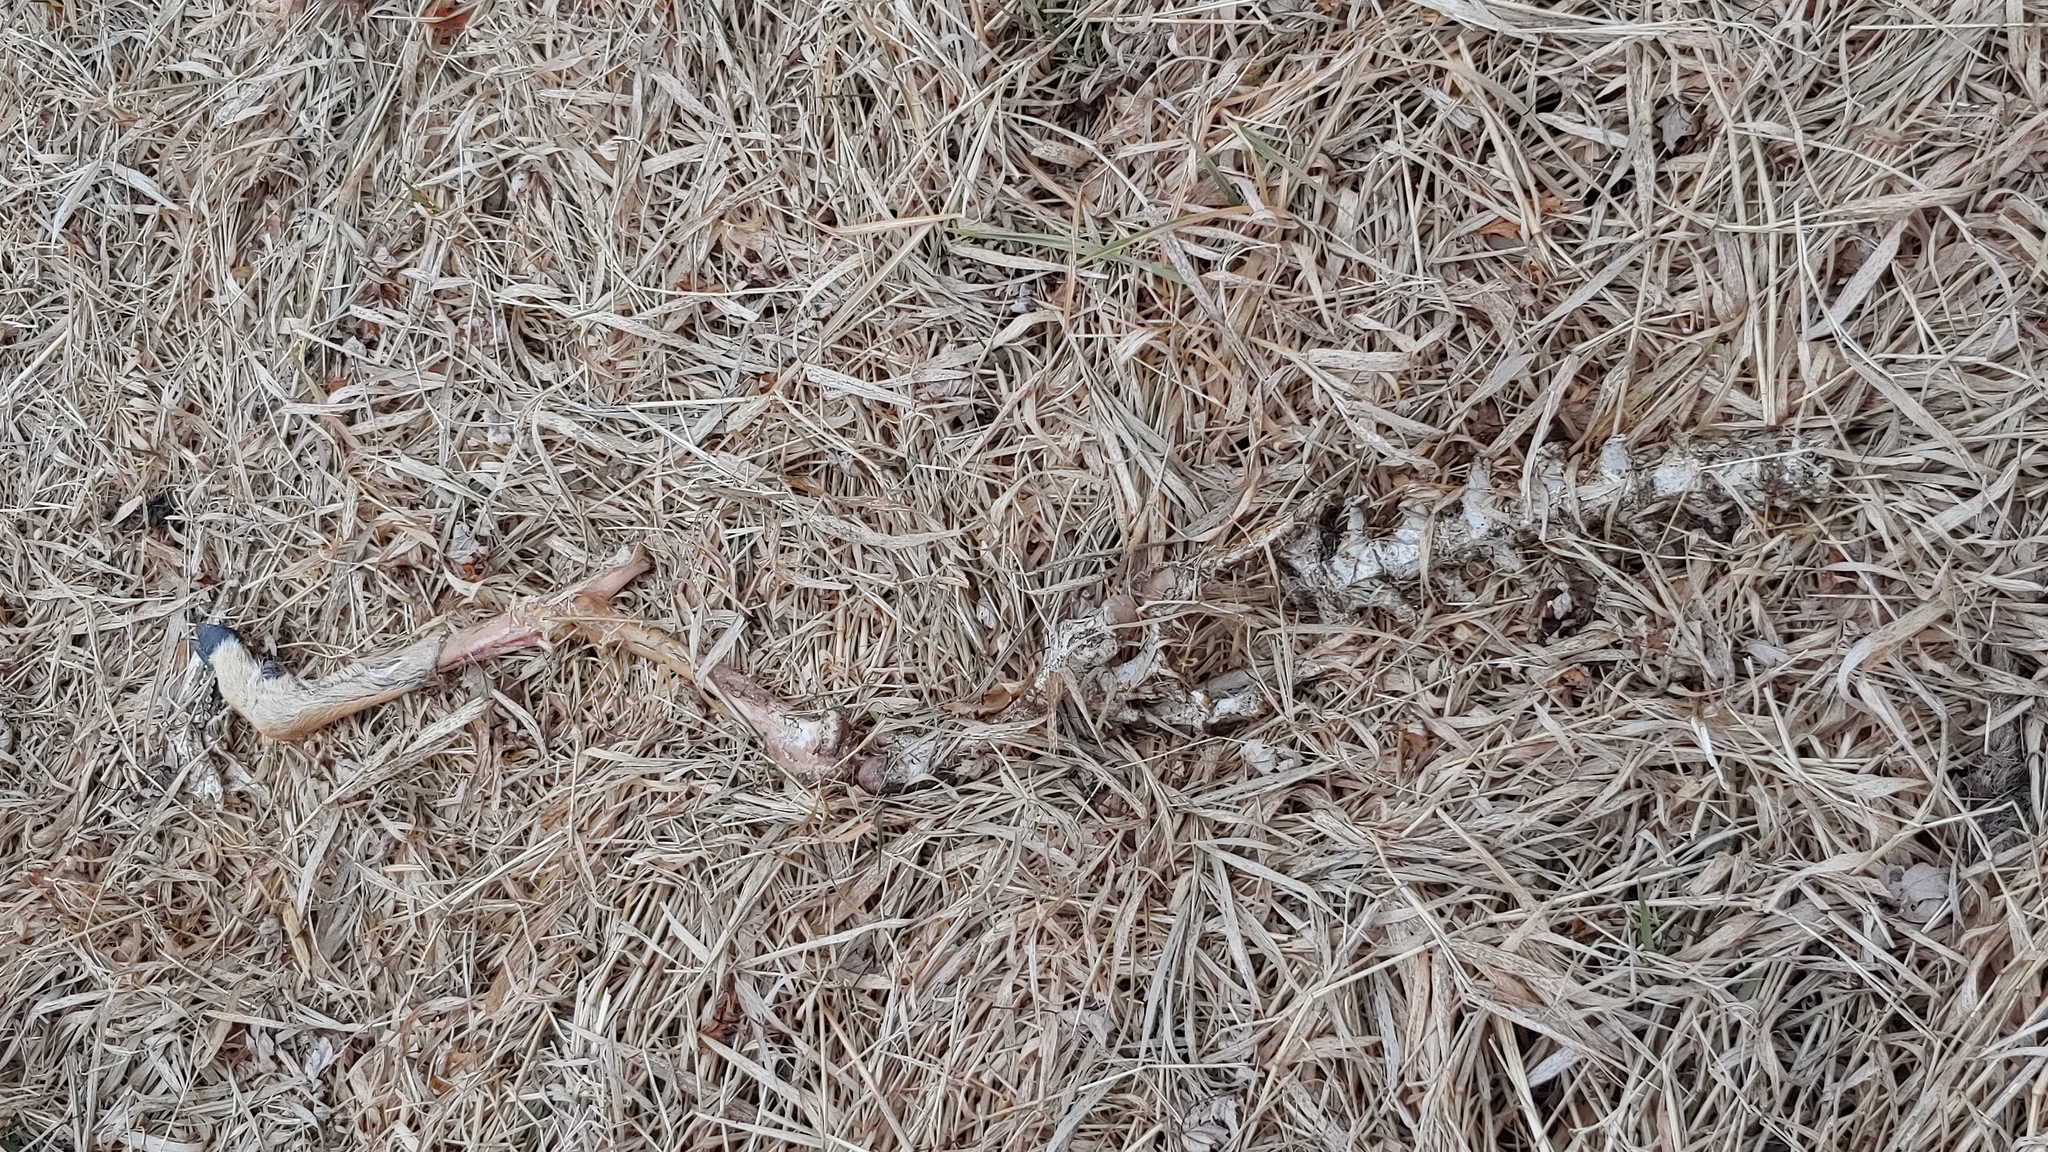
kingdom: Animalia
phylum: Chordata
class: Mammalia
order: Artiodactyla
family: Cervidae
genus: Odocoileus
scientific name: Odocoileus virginianus
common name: White-tailed deer
